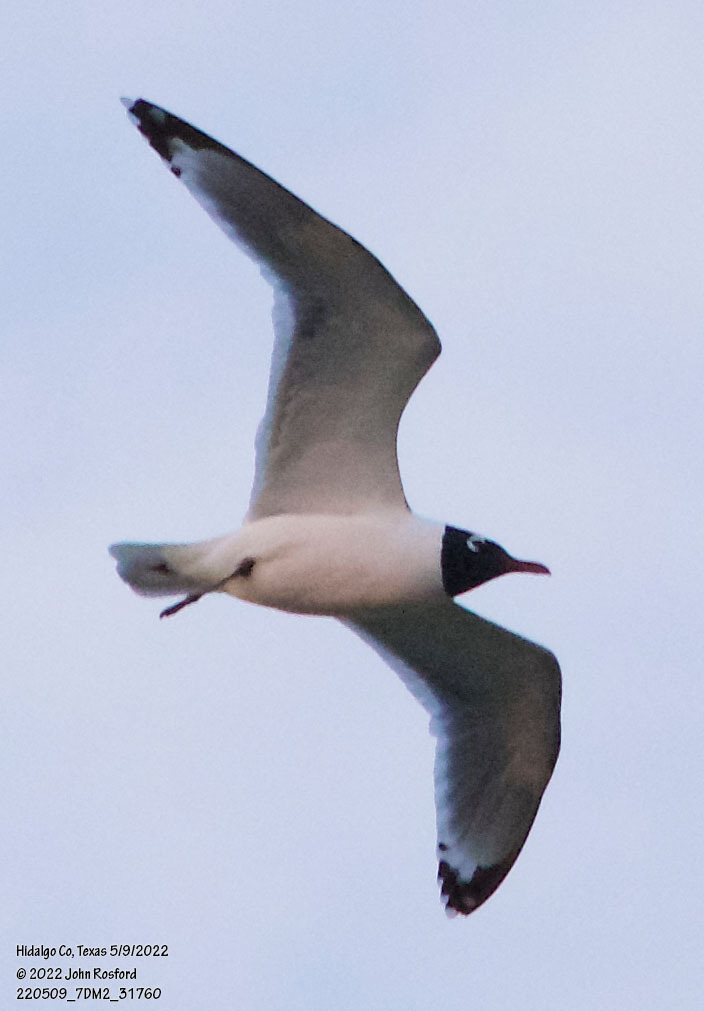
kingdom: Animalia
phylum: Chordata
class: Aves
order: Charadriiformes
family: Laridae
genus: Leucophaeus
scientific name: Leucophaeus pipixcan
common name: Franklin's gull
